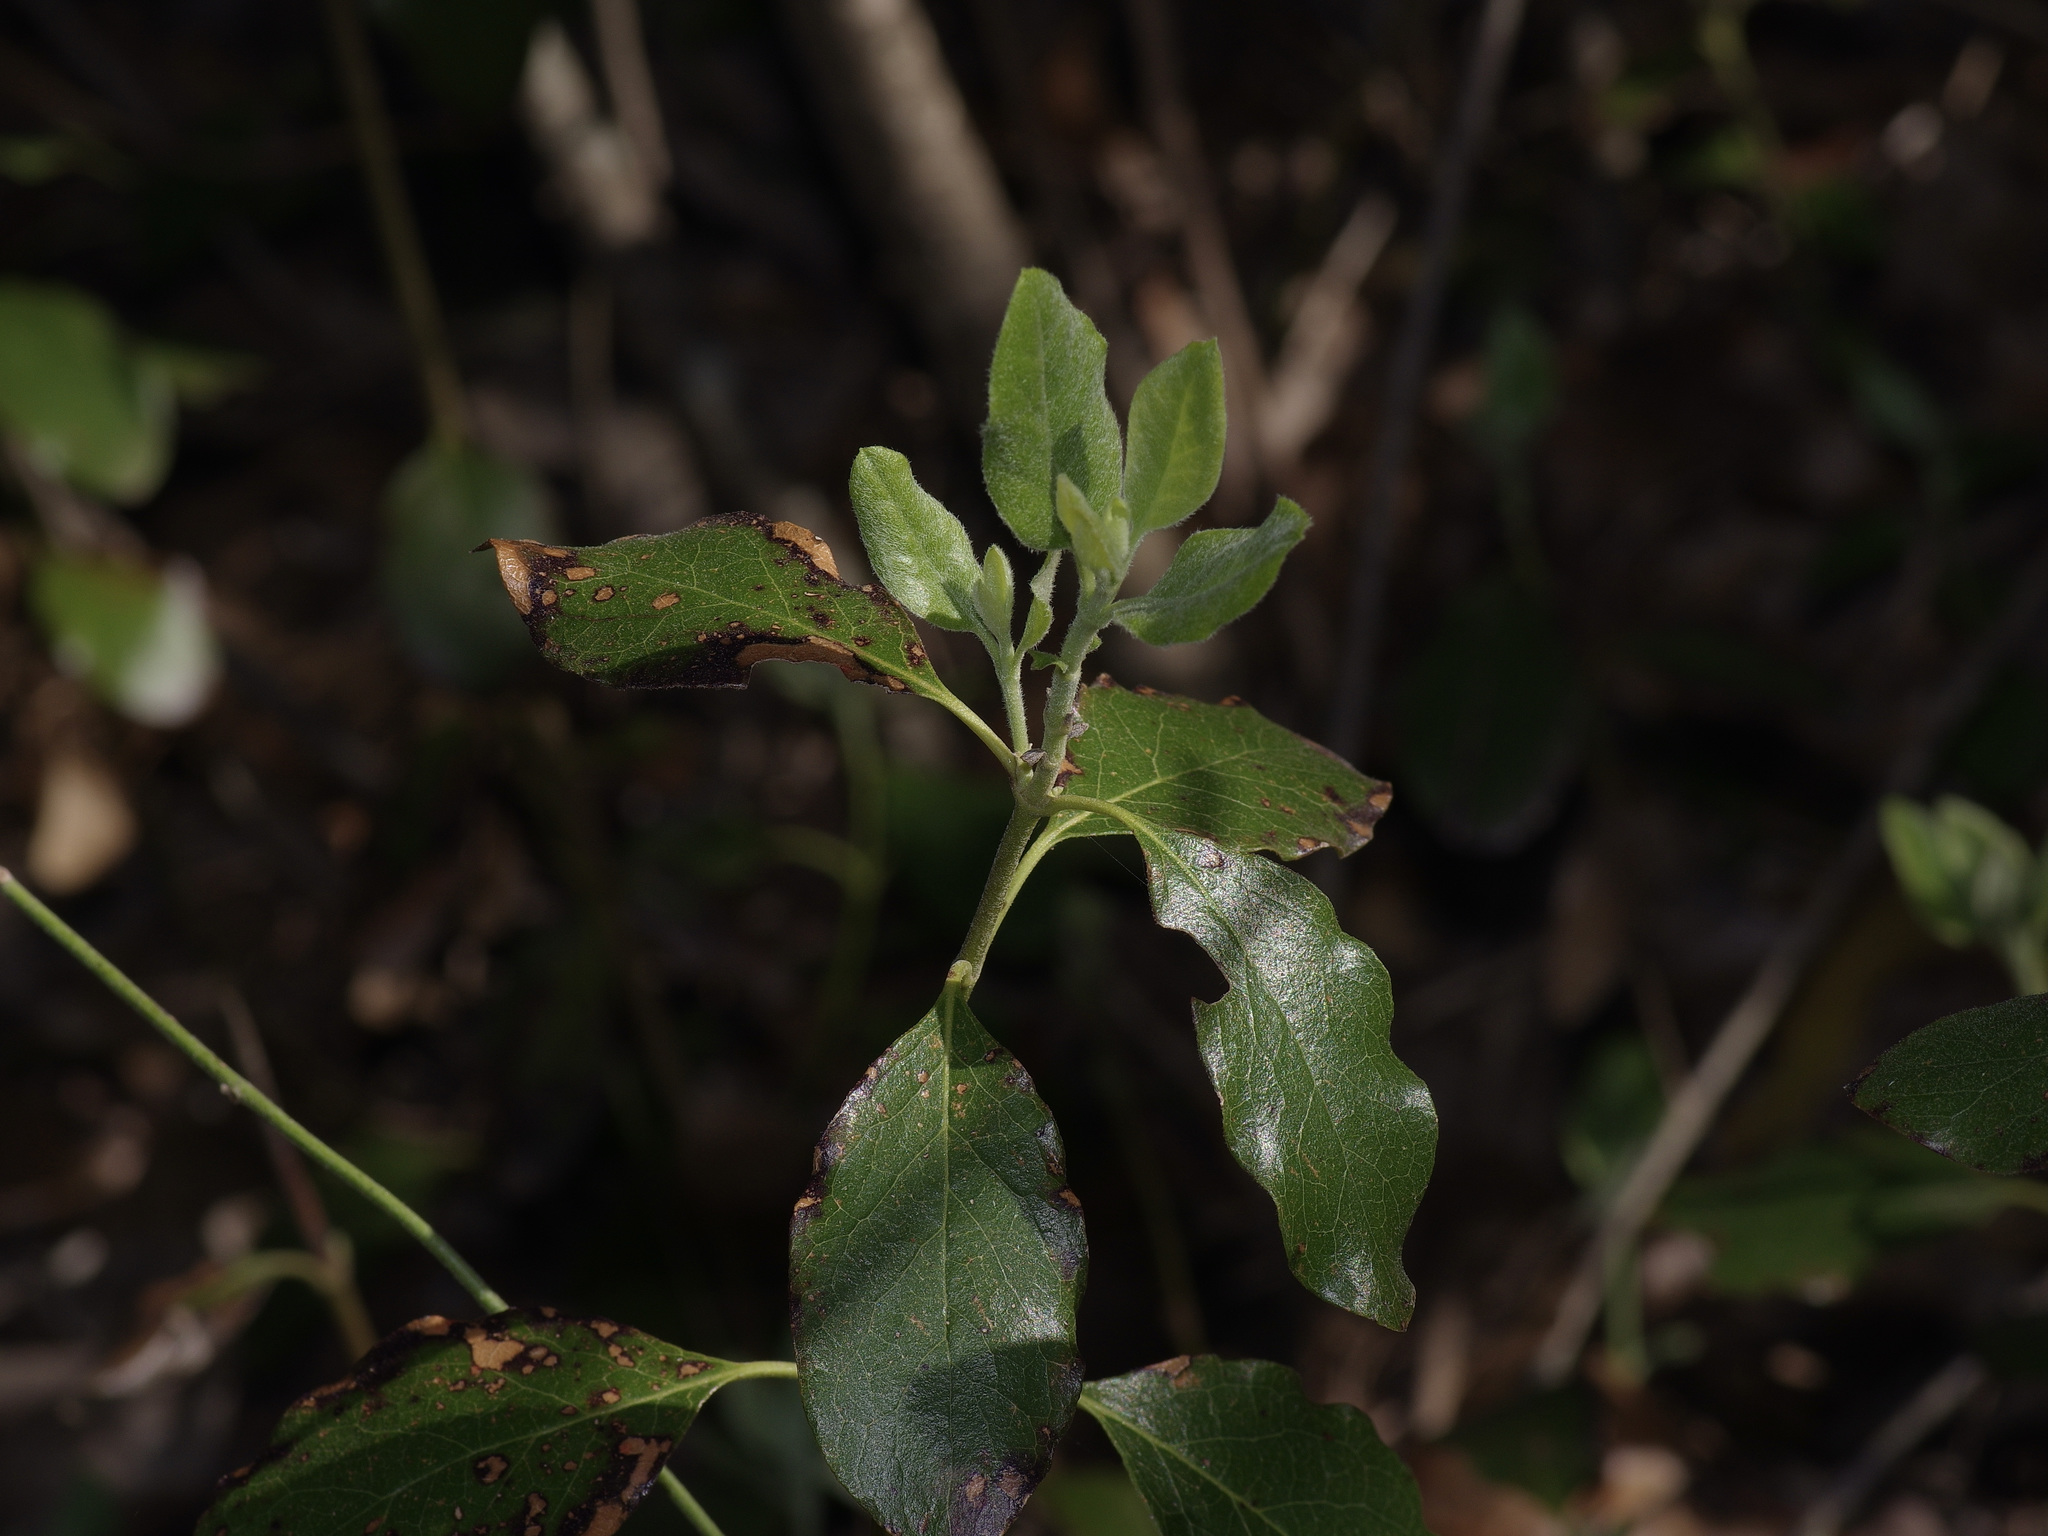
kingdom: Plantae
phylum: Tracheophyta
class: Magnoliopsida
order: Garryales
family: Garryaceae
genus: Garrya
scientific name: Garrya lindheimeri
